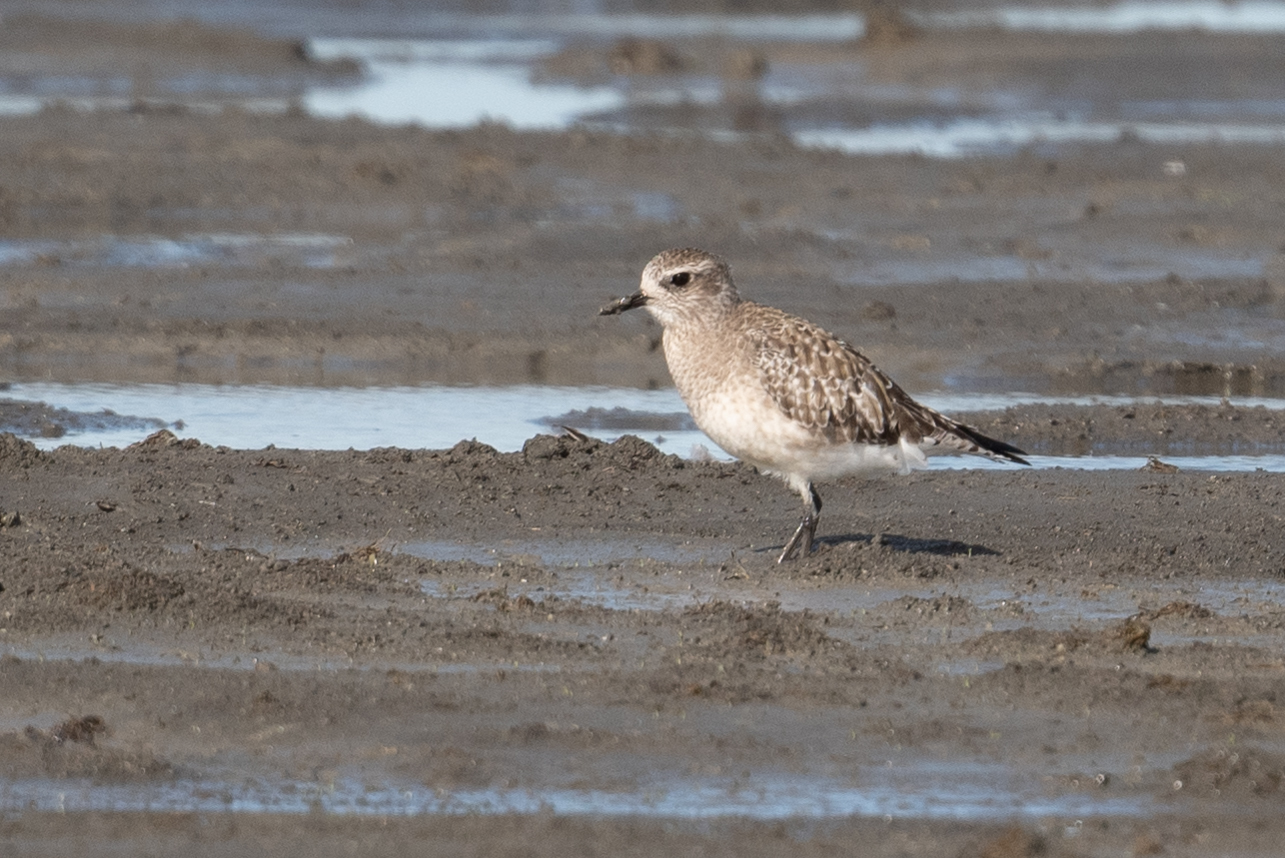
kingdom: Animalia
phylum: Chordata
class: Aves
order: Charadriiformes
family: Charadriidae
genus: Pluvialis
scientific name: Pluvialis squatarola
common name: Grey plover
